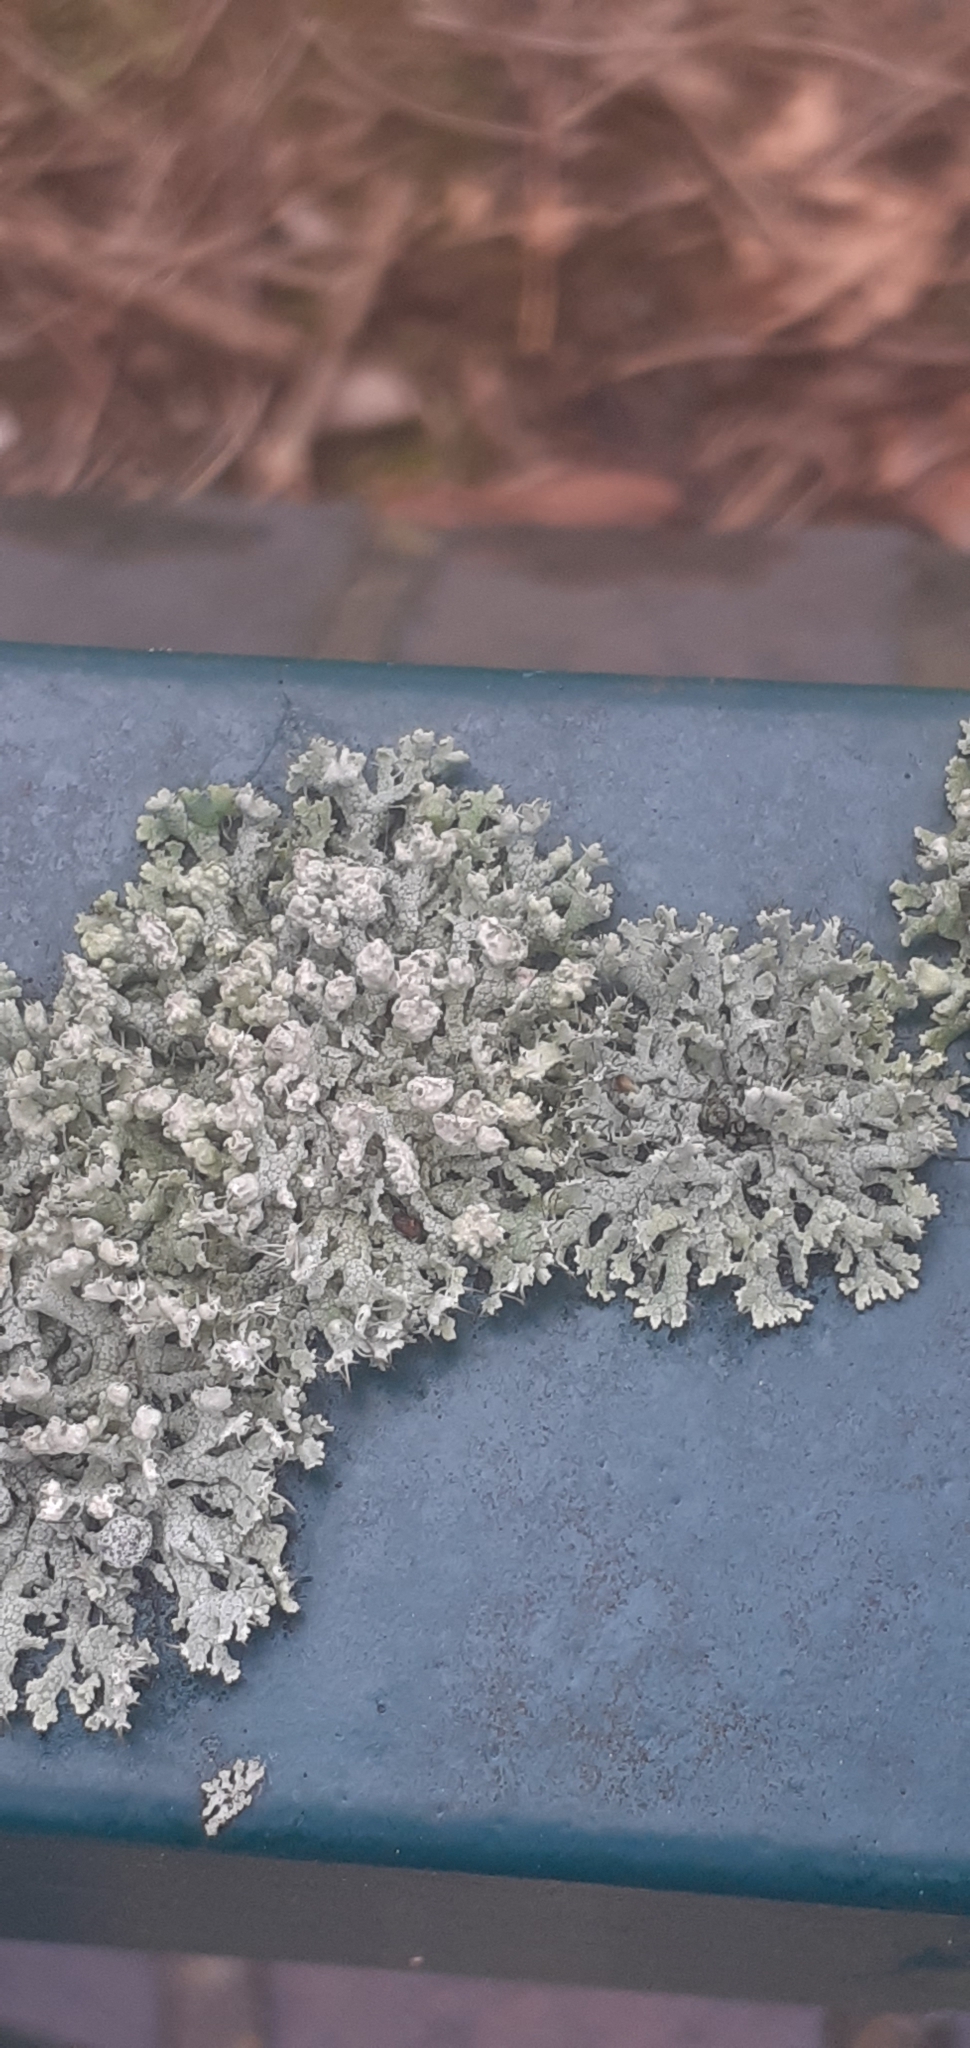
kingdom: Fungi
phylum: Ascomycota
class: Lecanoromycetes
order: Caliciales
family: Physciaceae
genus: Physcia
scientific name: Physcia adscendens
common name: Hooded rosette lichen
